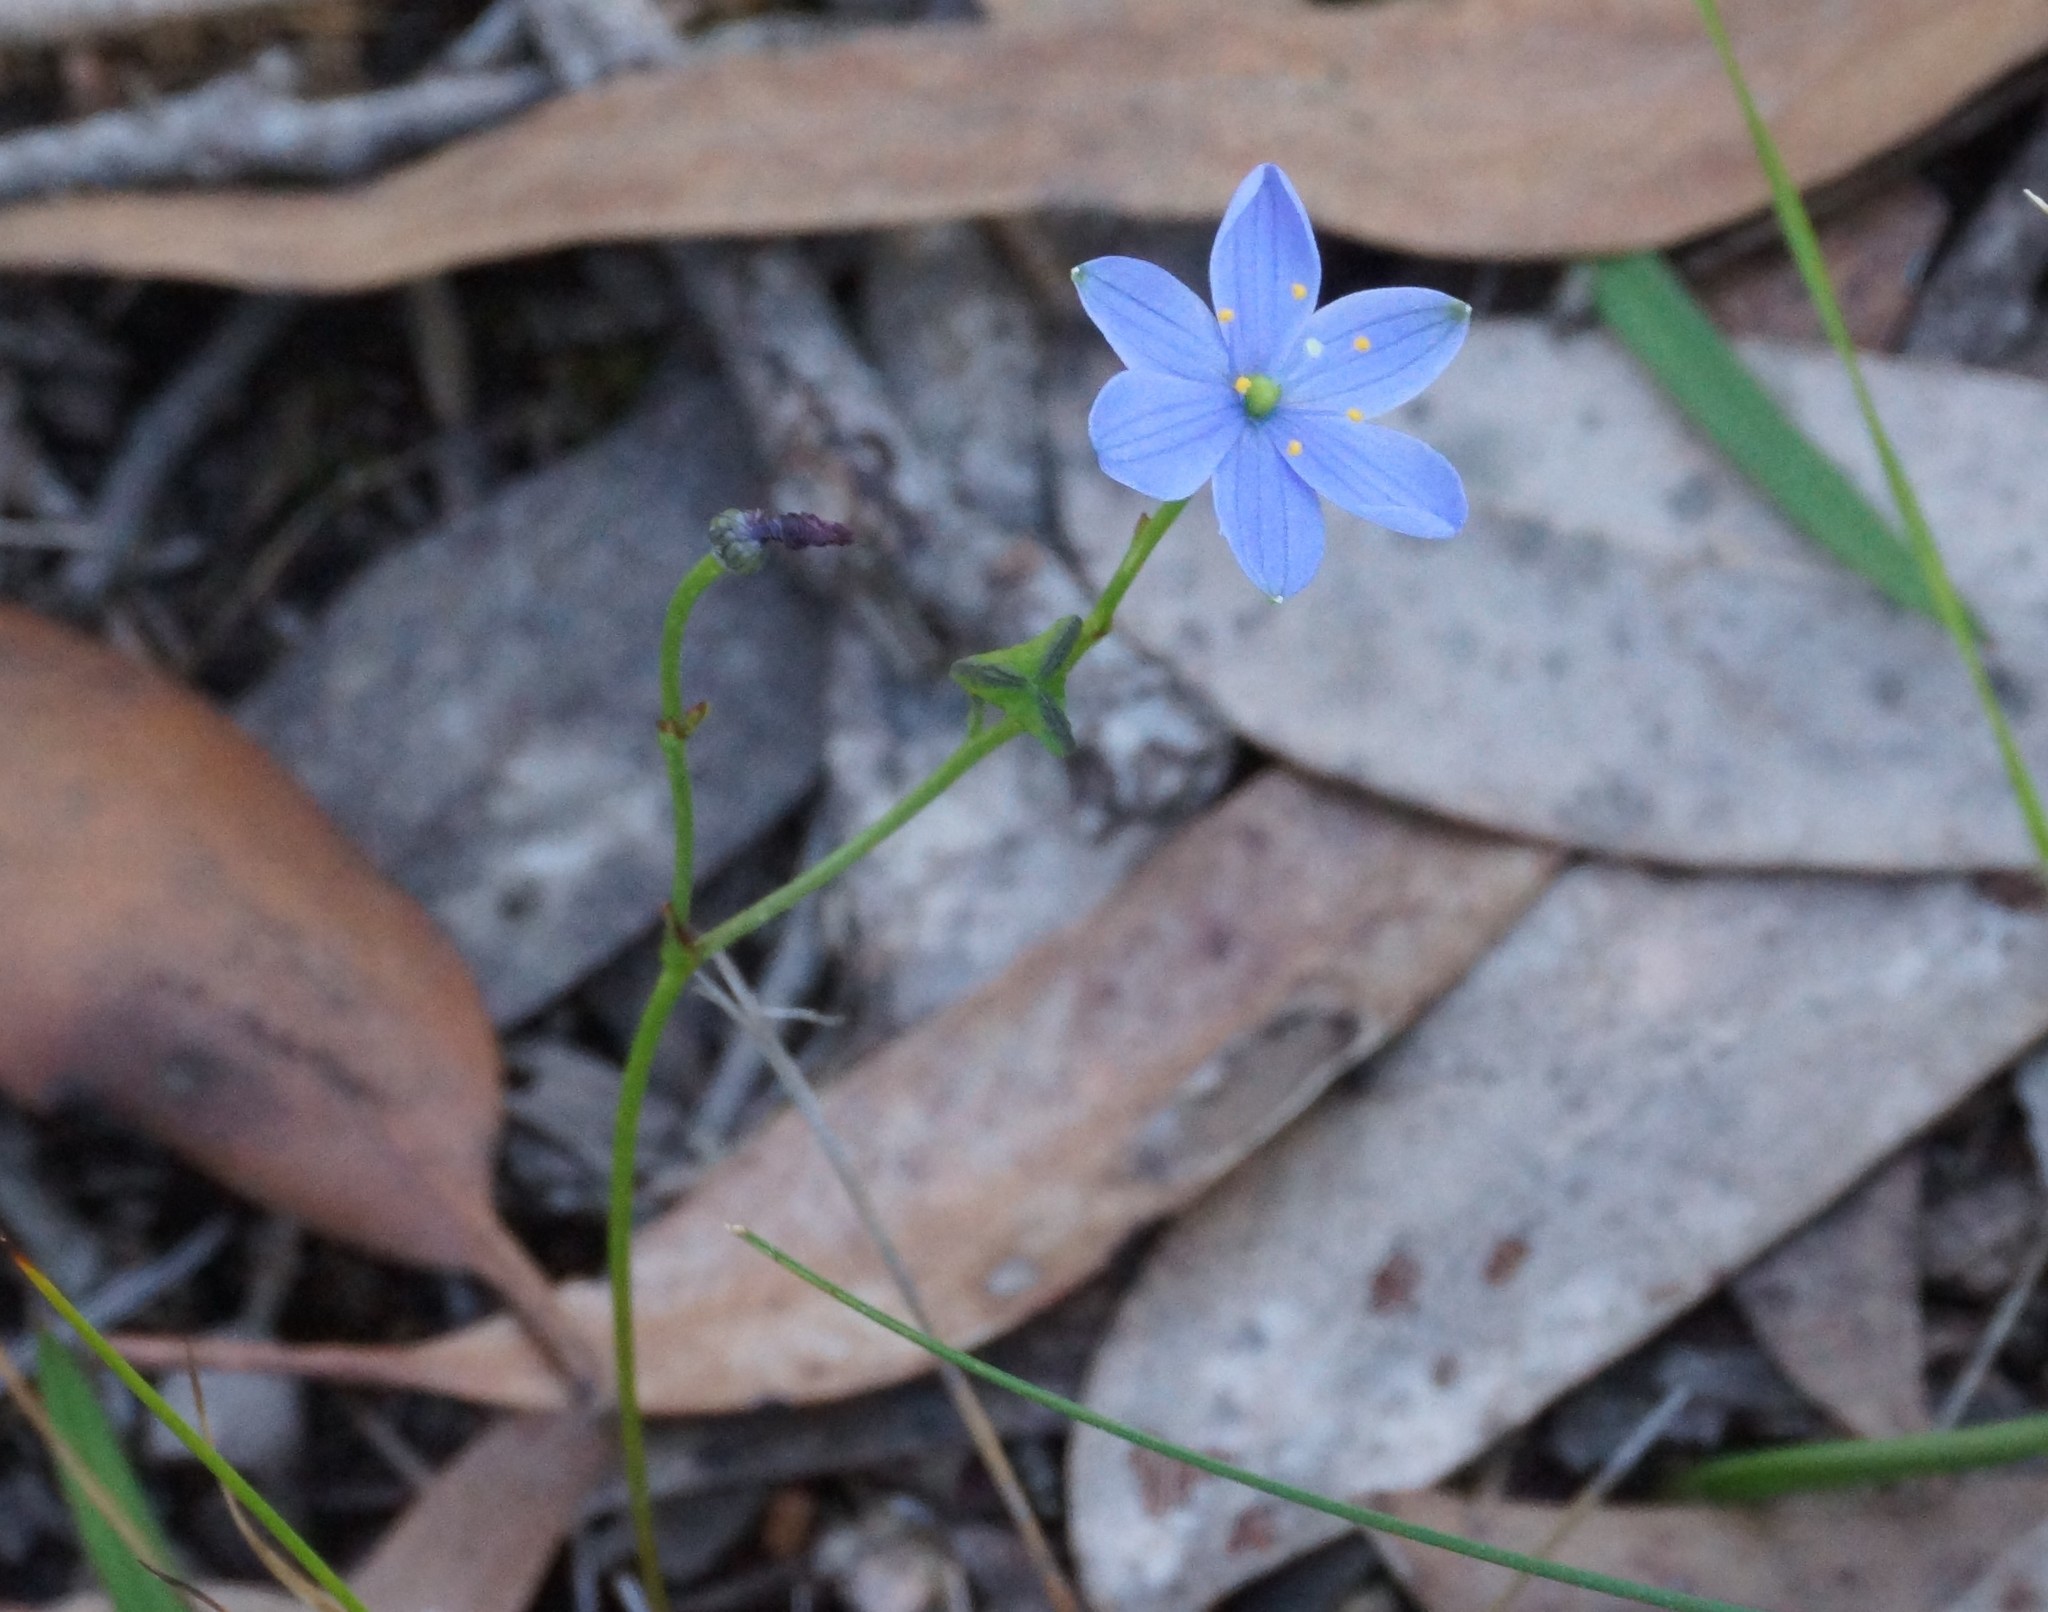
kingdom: Plantae
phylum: Tracheophyta
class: Liliopsida
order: Asparagales
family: Asphodelaceae
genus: Chamaescilla
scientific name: Chamaescilla corymbosa
